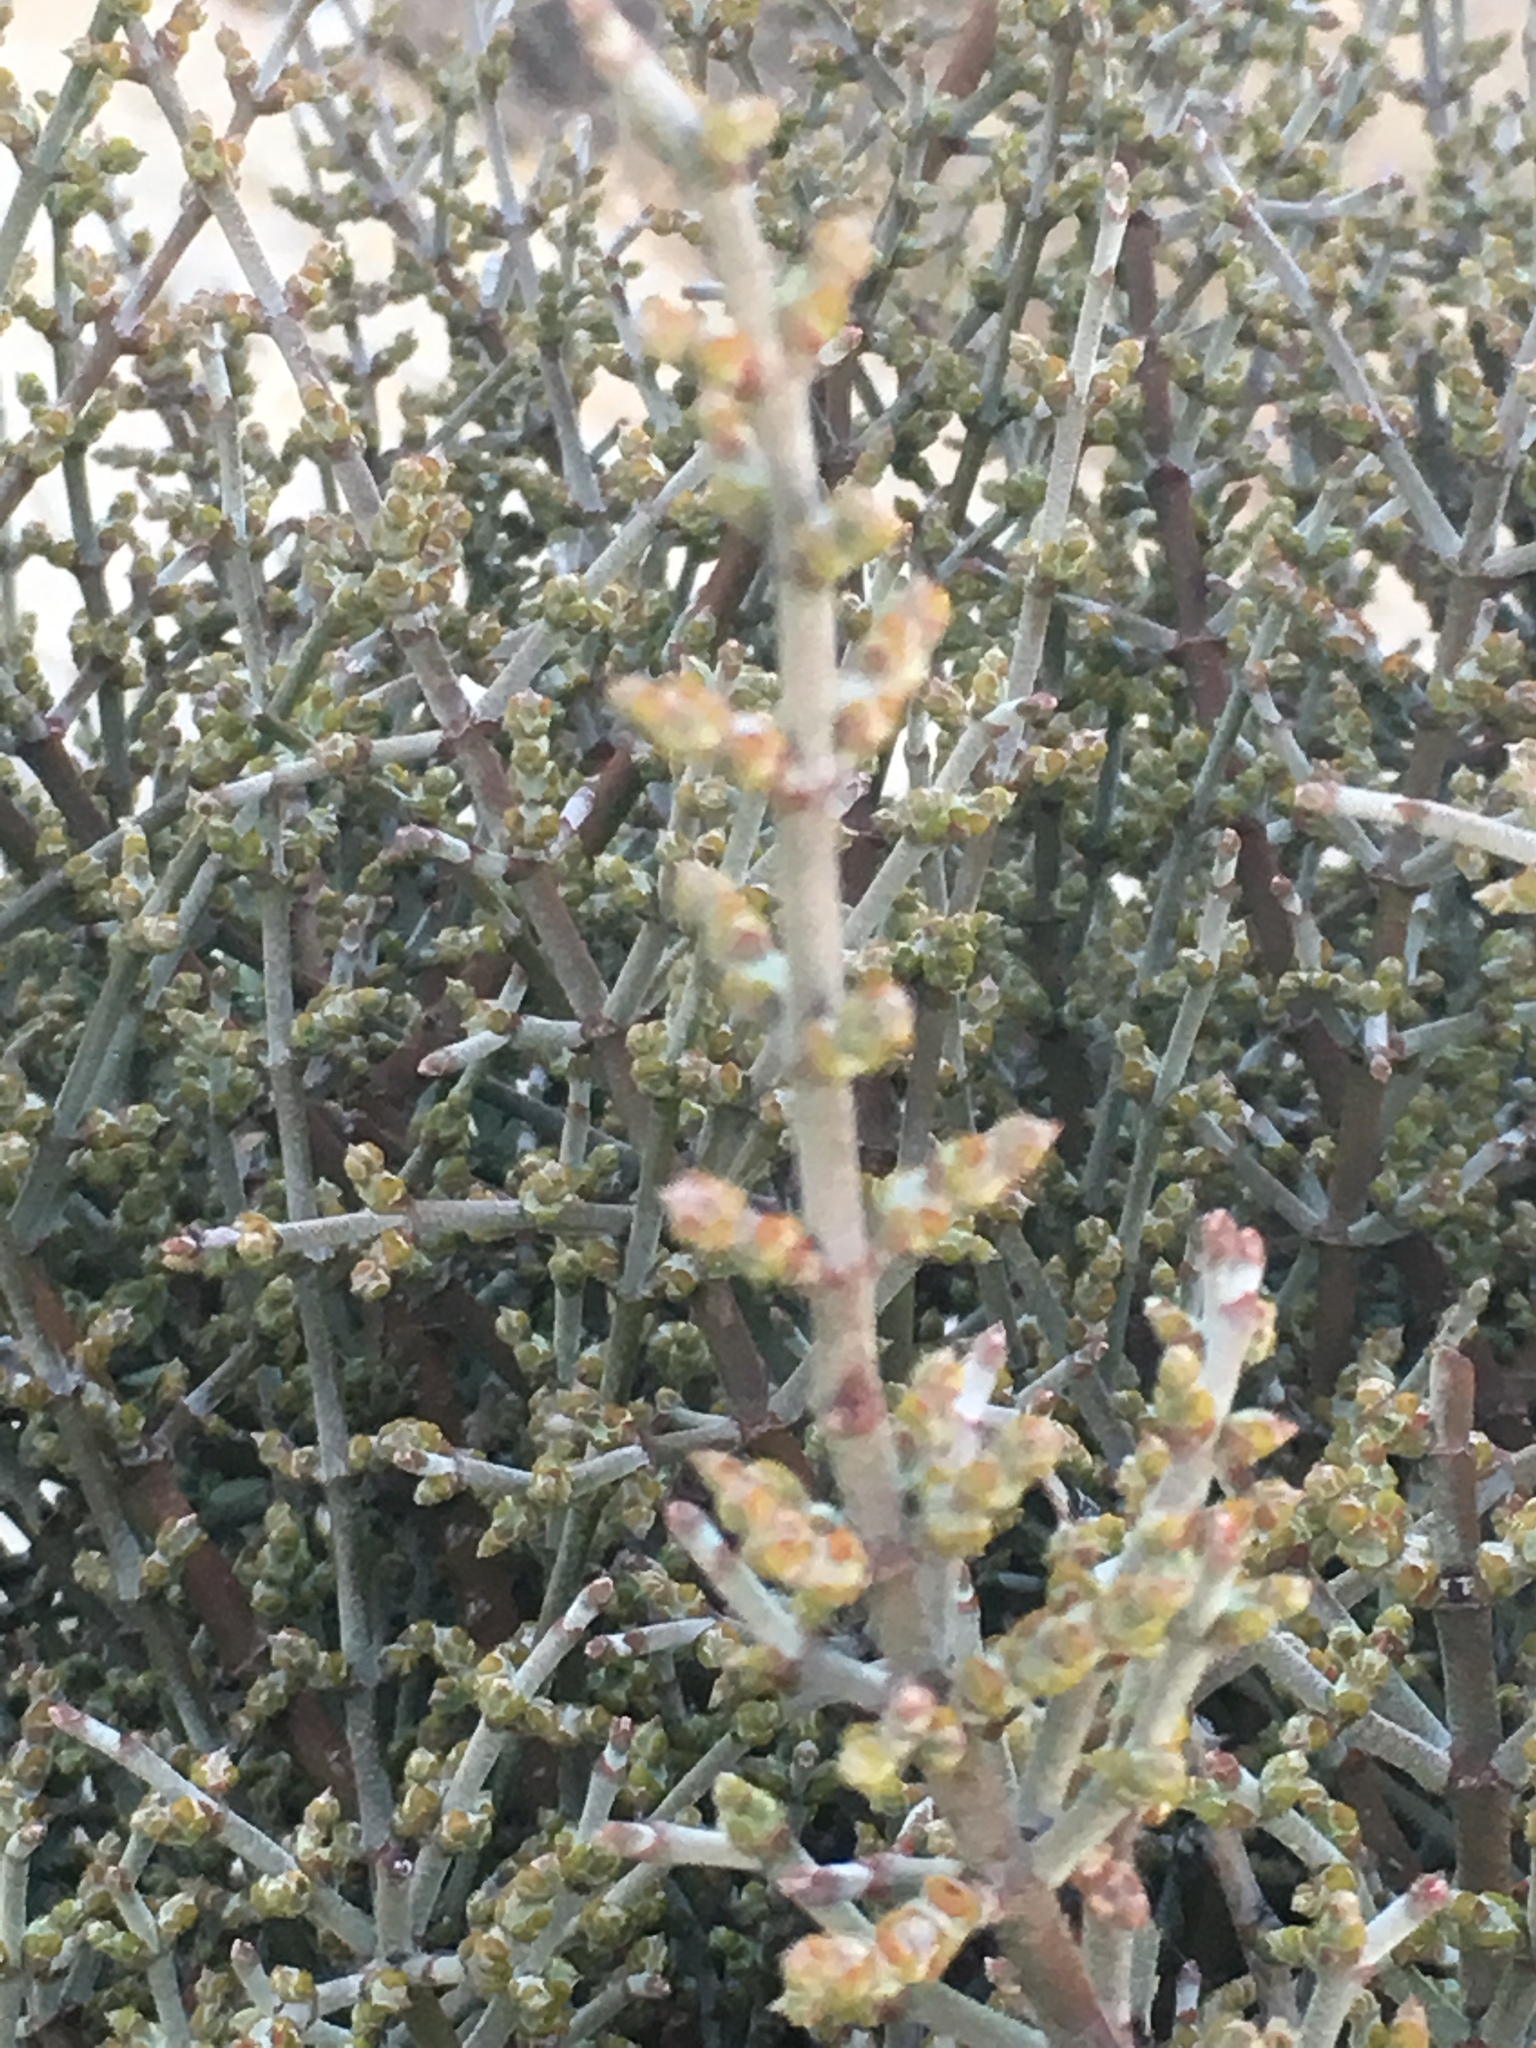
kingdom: Plantae
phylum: Tracheophyta
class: Magnoliopsida
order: Santalales
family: Viscaceae
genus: Phoradendron
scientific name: Phoradendron californicum
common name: Acacia mistletoe
